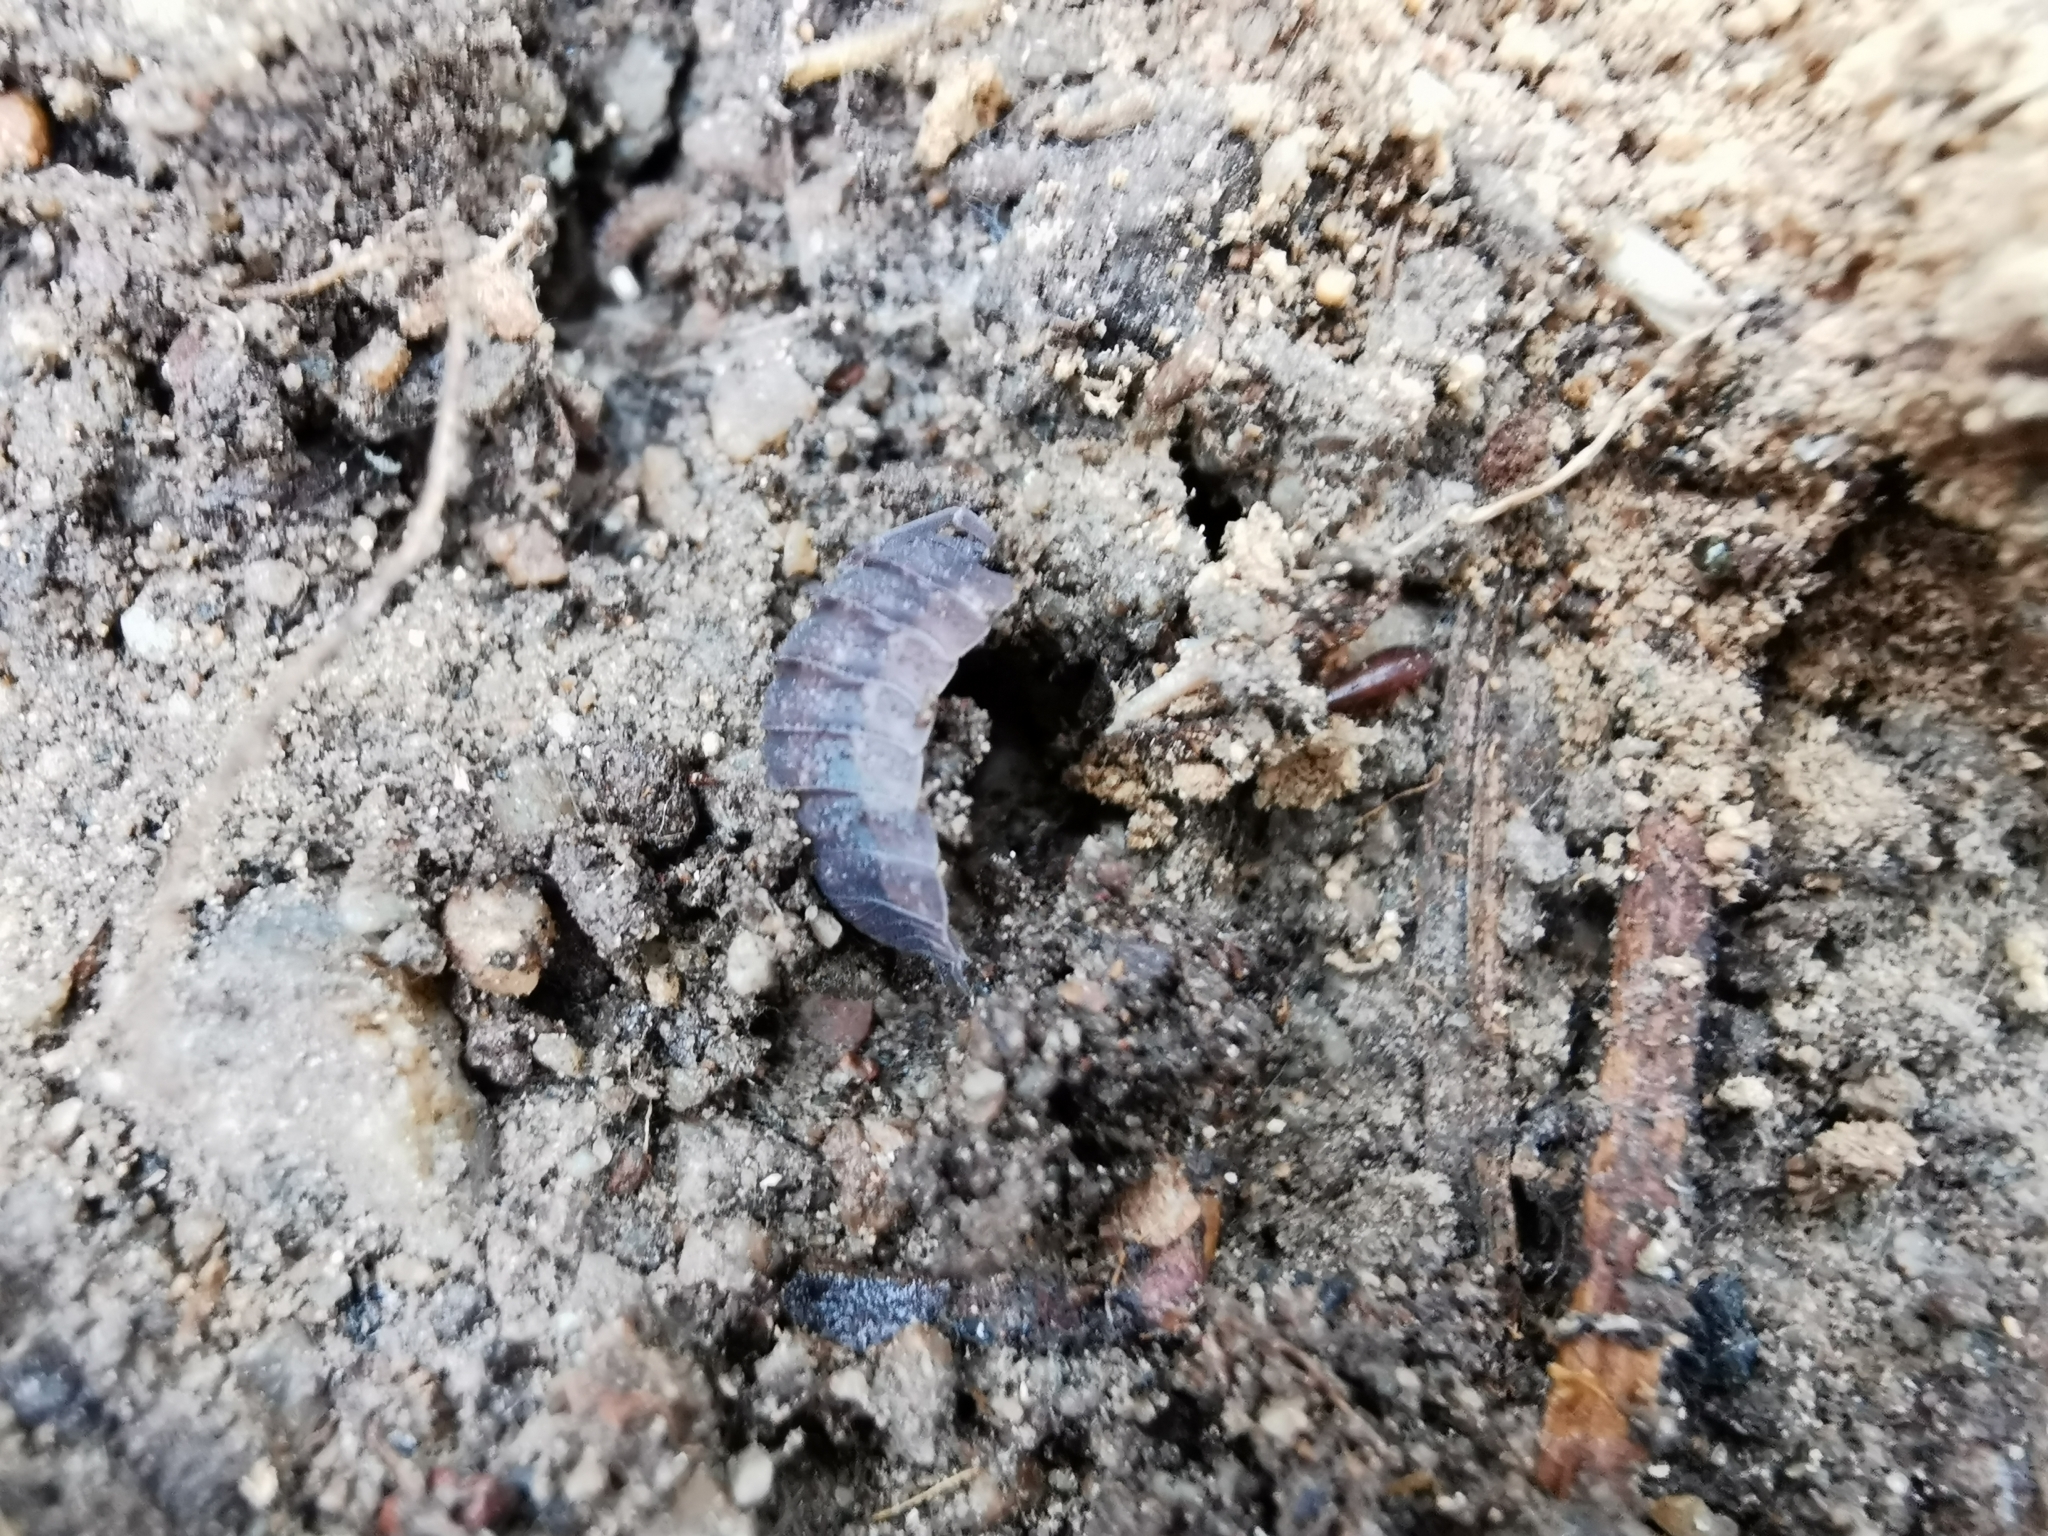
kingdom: Animalia
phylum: Arthropoda
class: Malacostraca
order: Isopoda
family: Porcellionidae
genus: Porcellio
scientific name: Porcellio scaber
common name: Common rough woodlouse
